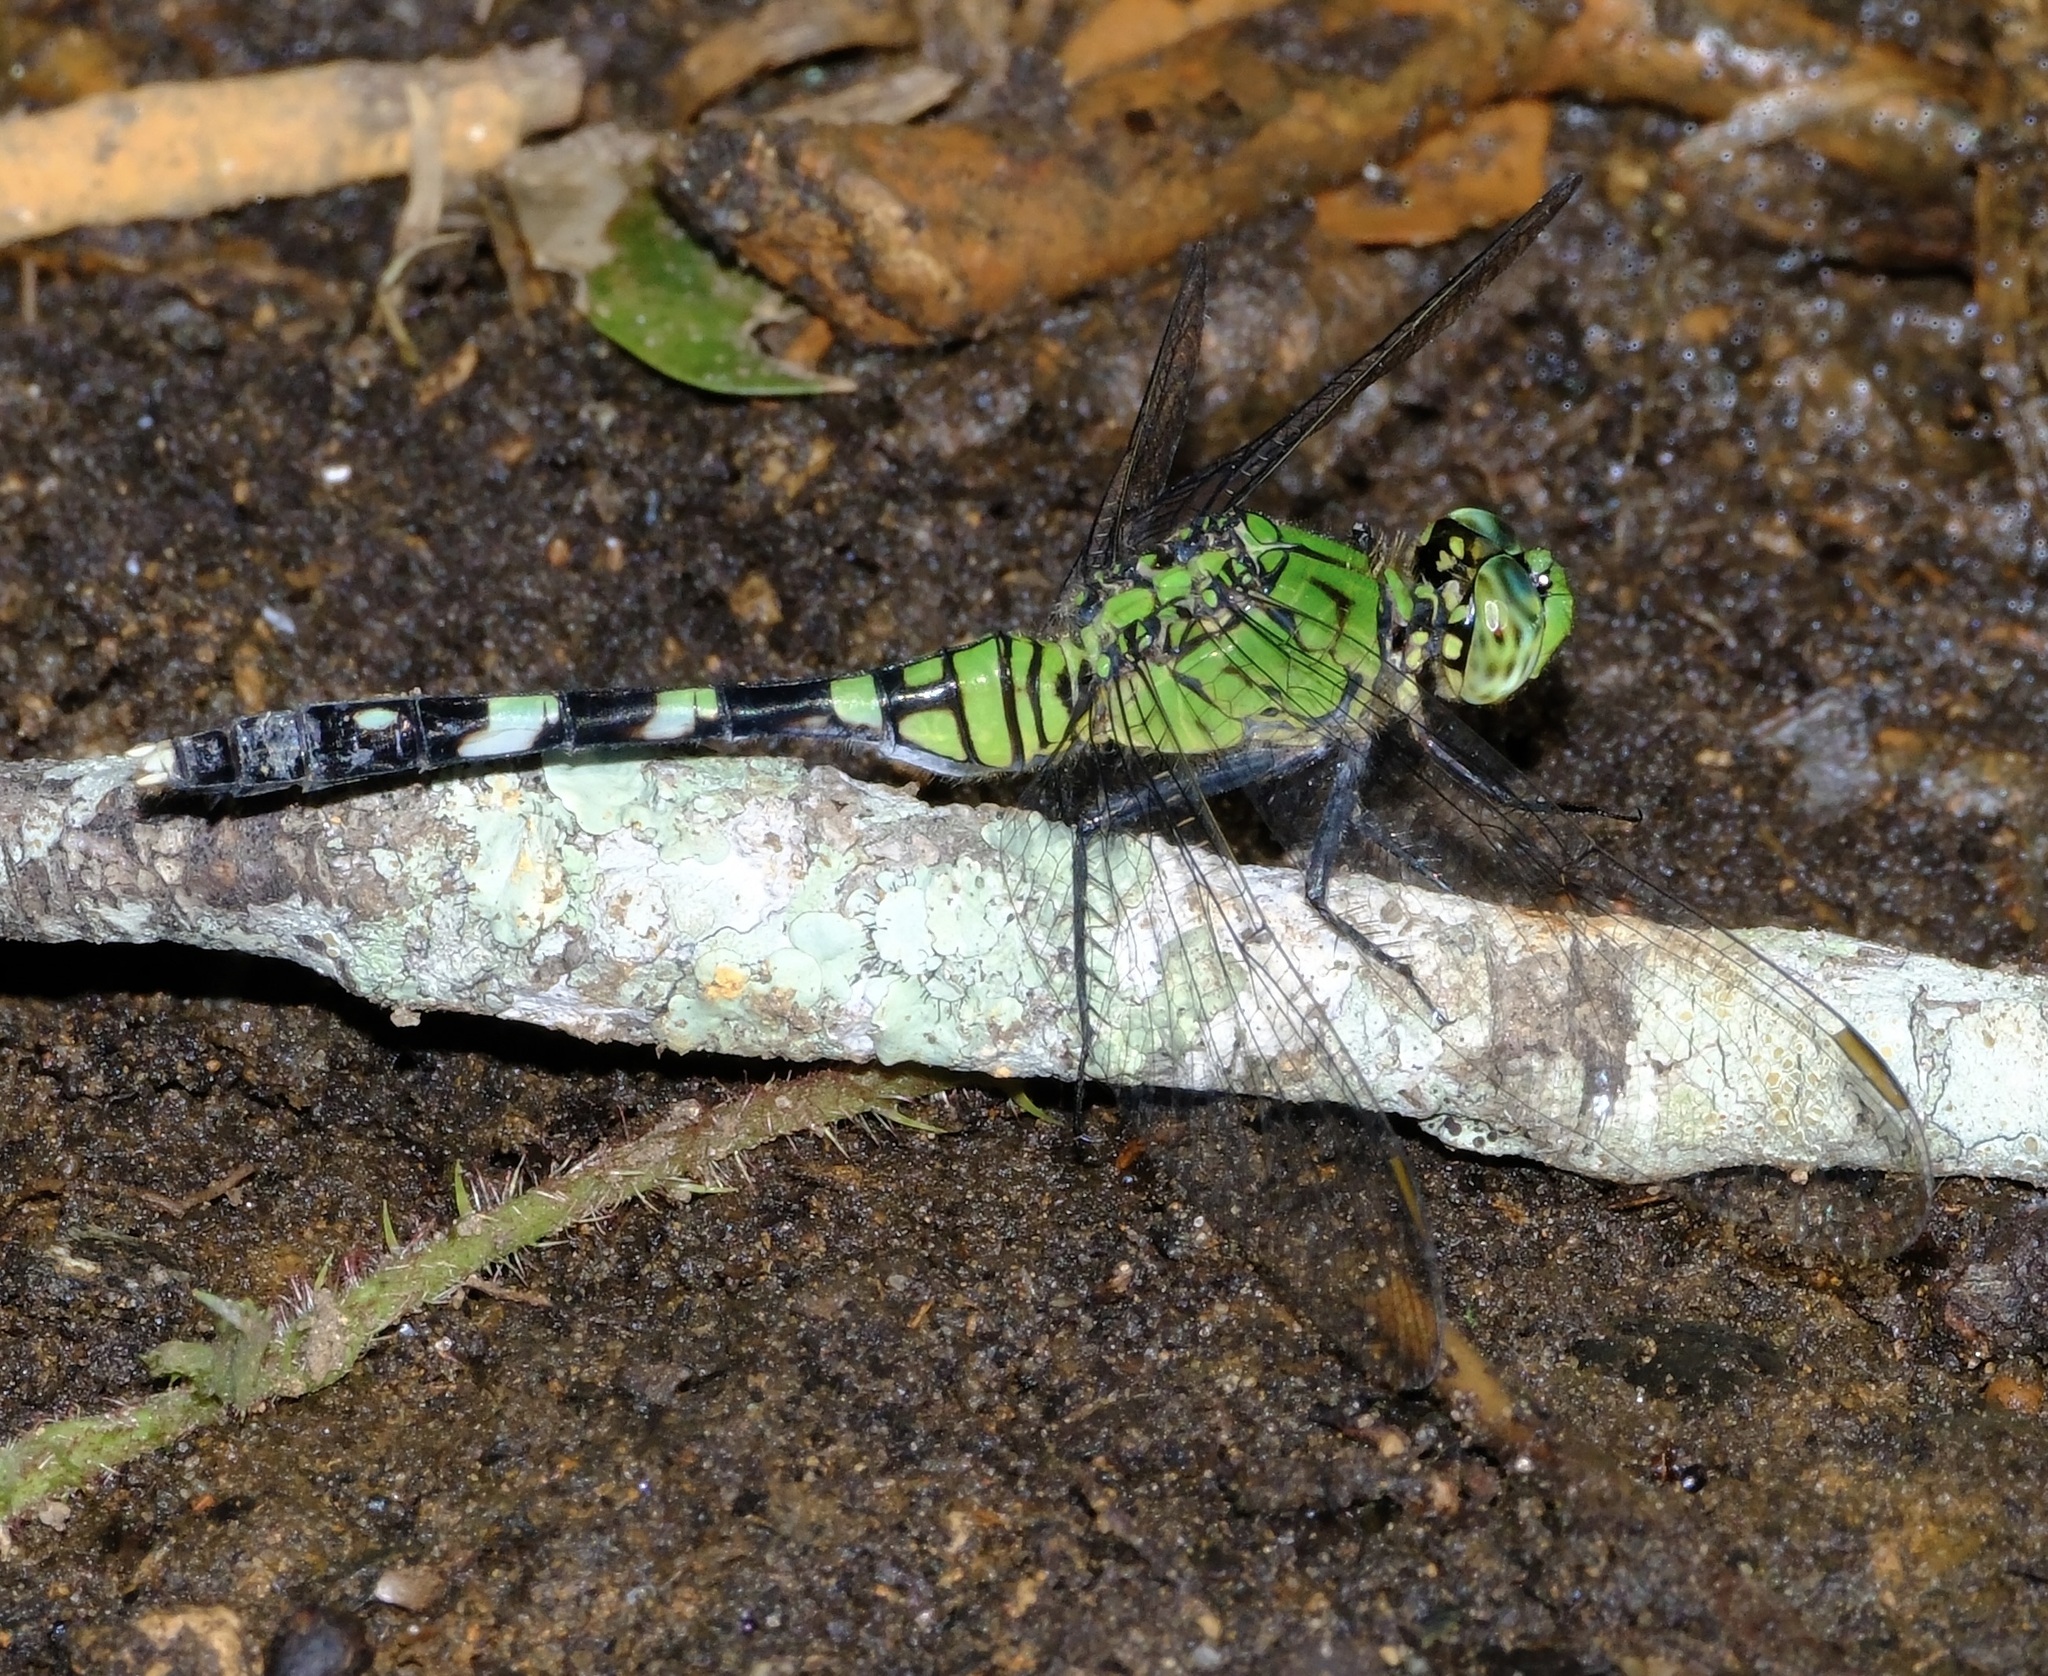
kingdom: Animalia
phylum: Arthropoda
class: Insecta
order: Odonata
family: Libellulidae
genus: Erythemis
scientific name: Erythemis simplicicollis
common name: Eastern pondhawk
